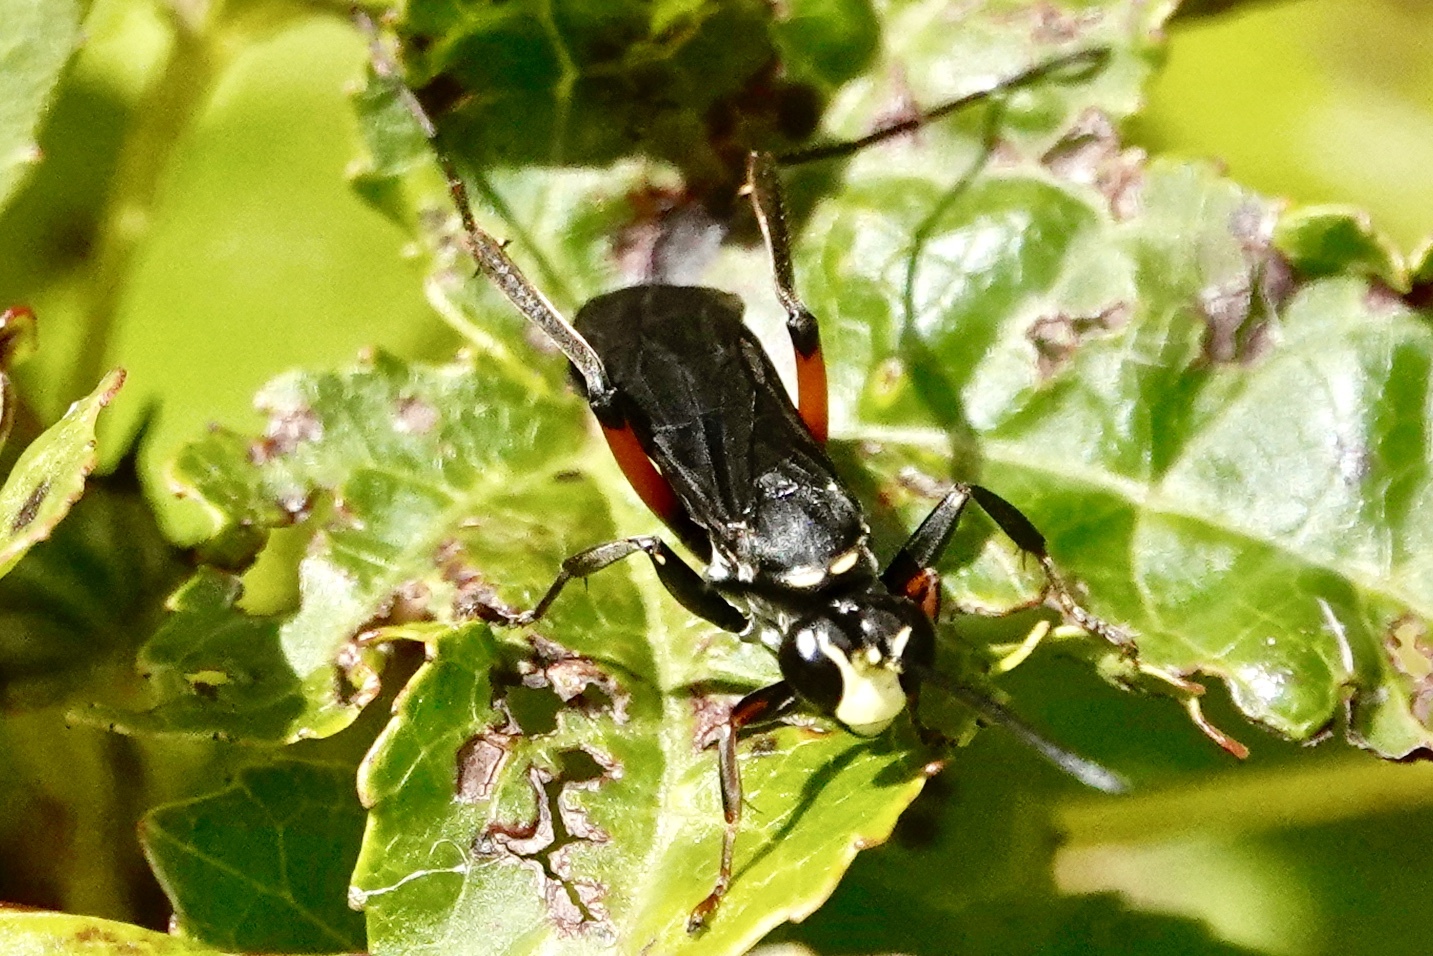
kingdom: Animalia
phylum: Arthropoda
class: Insecta
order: Hymenoptera
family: Pompilidae
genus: Ceropales
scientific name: Ceropales bipunctata
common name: Two-speckled cuckoo spider wasp
